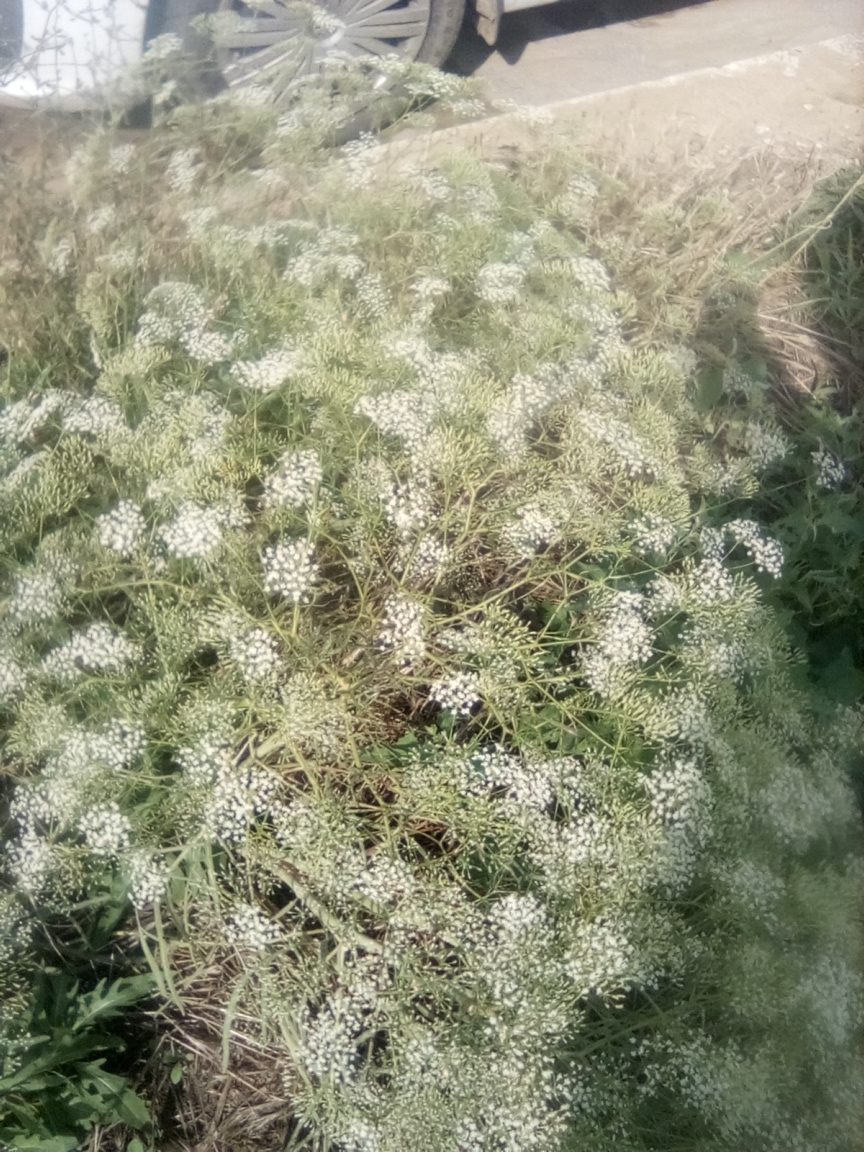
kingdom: Plantae
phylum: Tracheophyta
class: Magnoliopsida
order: Apiales
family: Apiaceae
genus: Falcaria
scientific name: Falcaria vulgaris
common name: Longleaf
